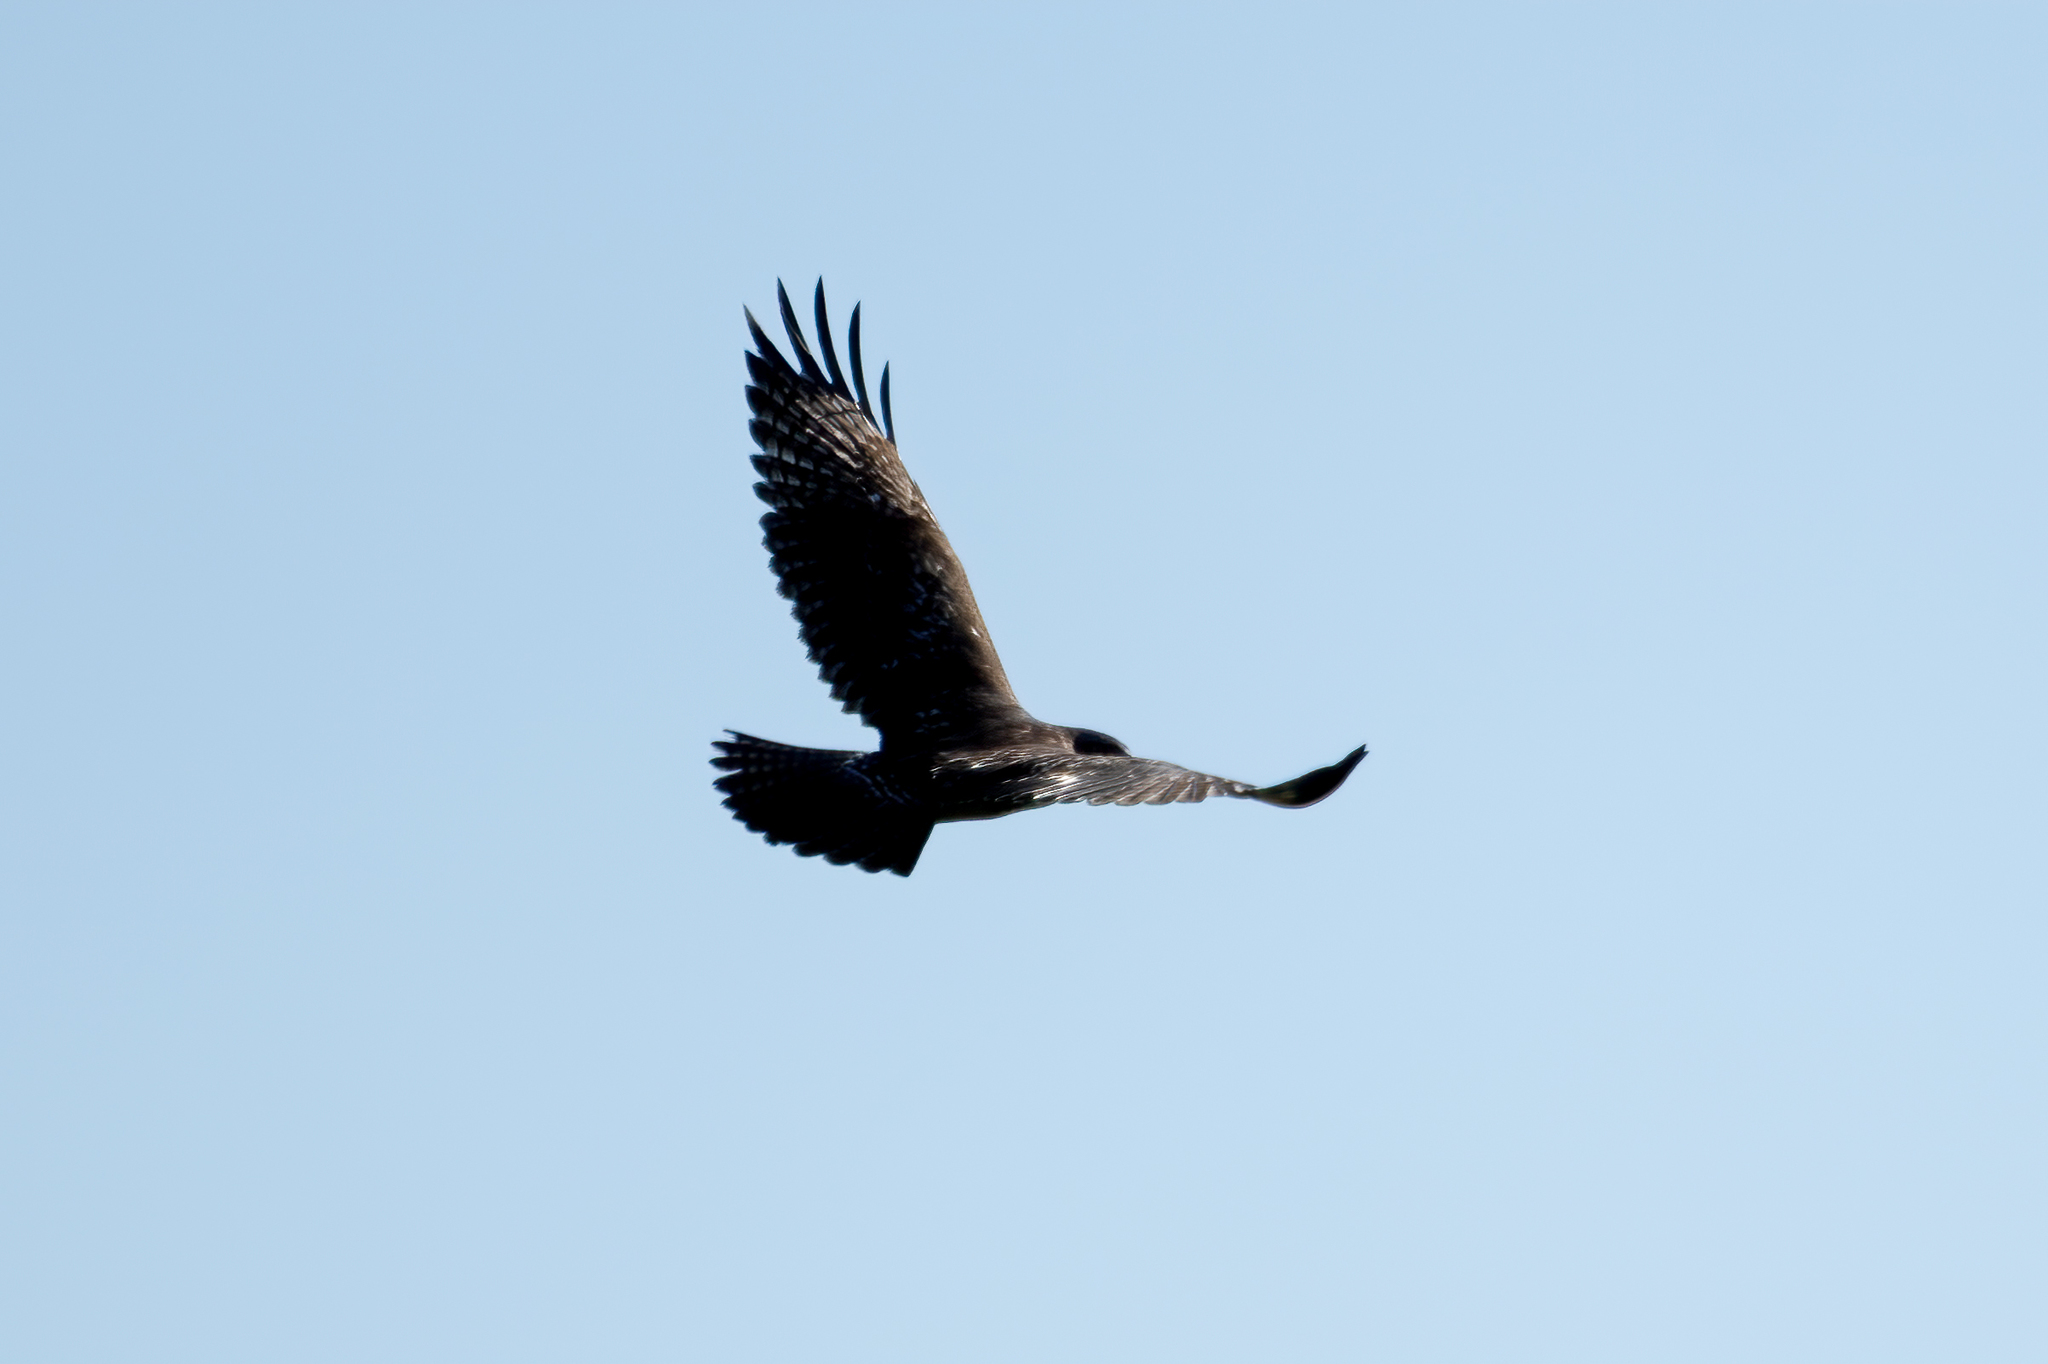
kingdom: Animalia
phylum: Chordata
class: Aves
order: Accipitriformes
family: Accipitridae
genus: Buteo
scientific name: Buteo jamaicensis
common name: Red-tailed hawk
